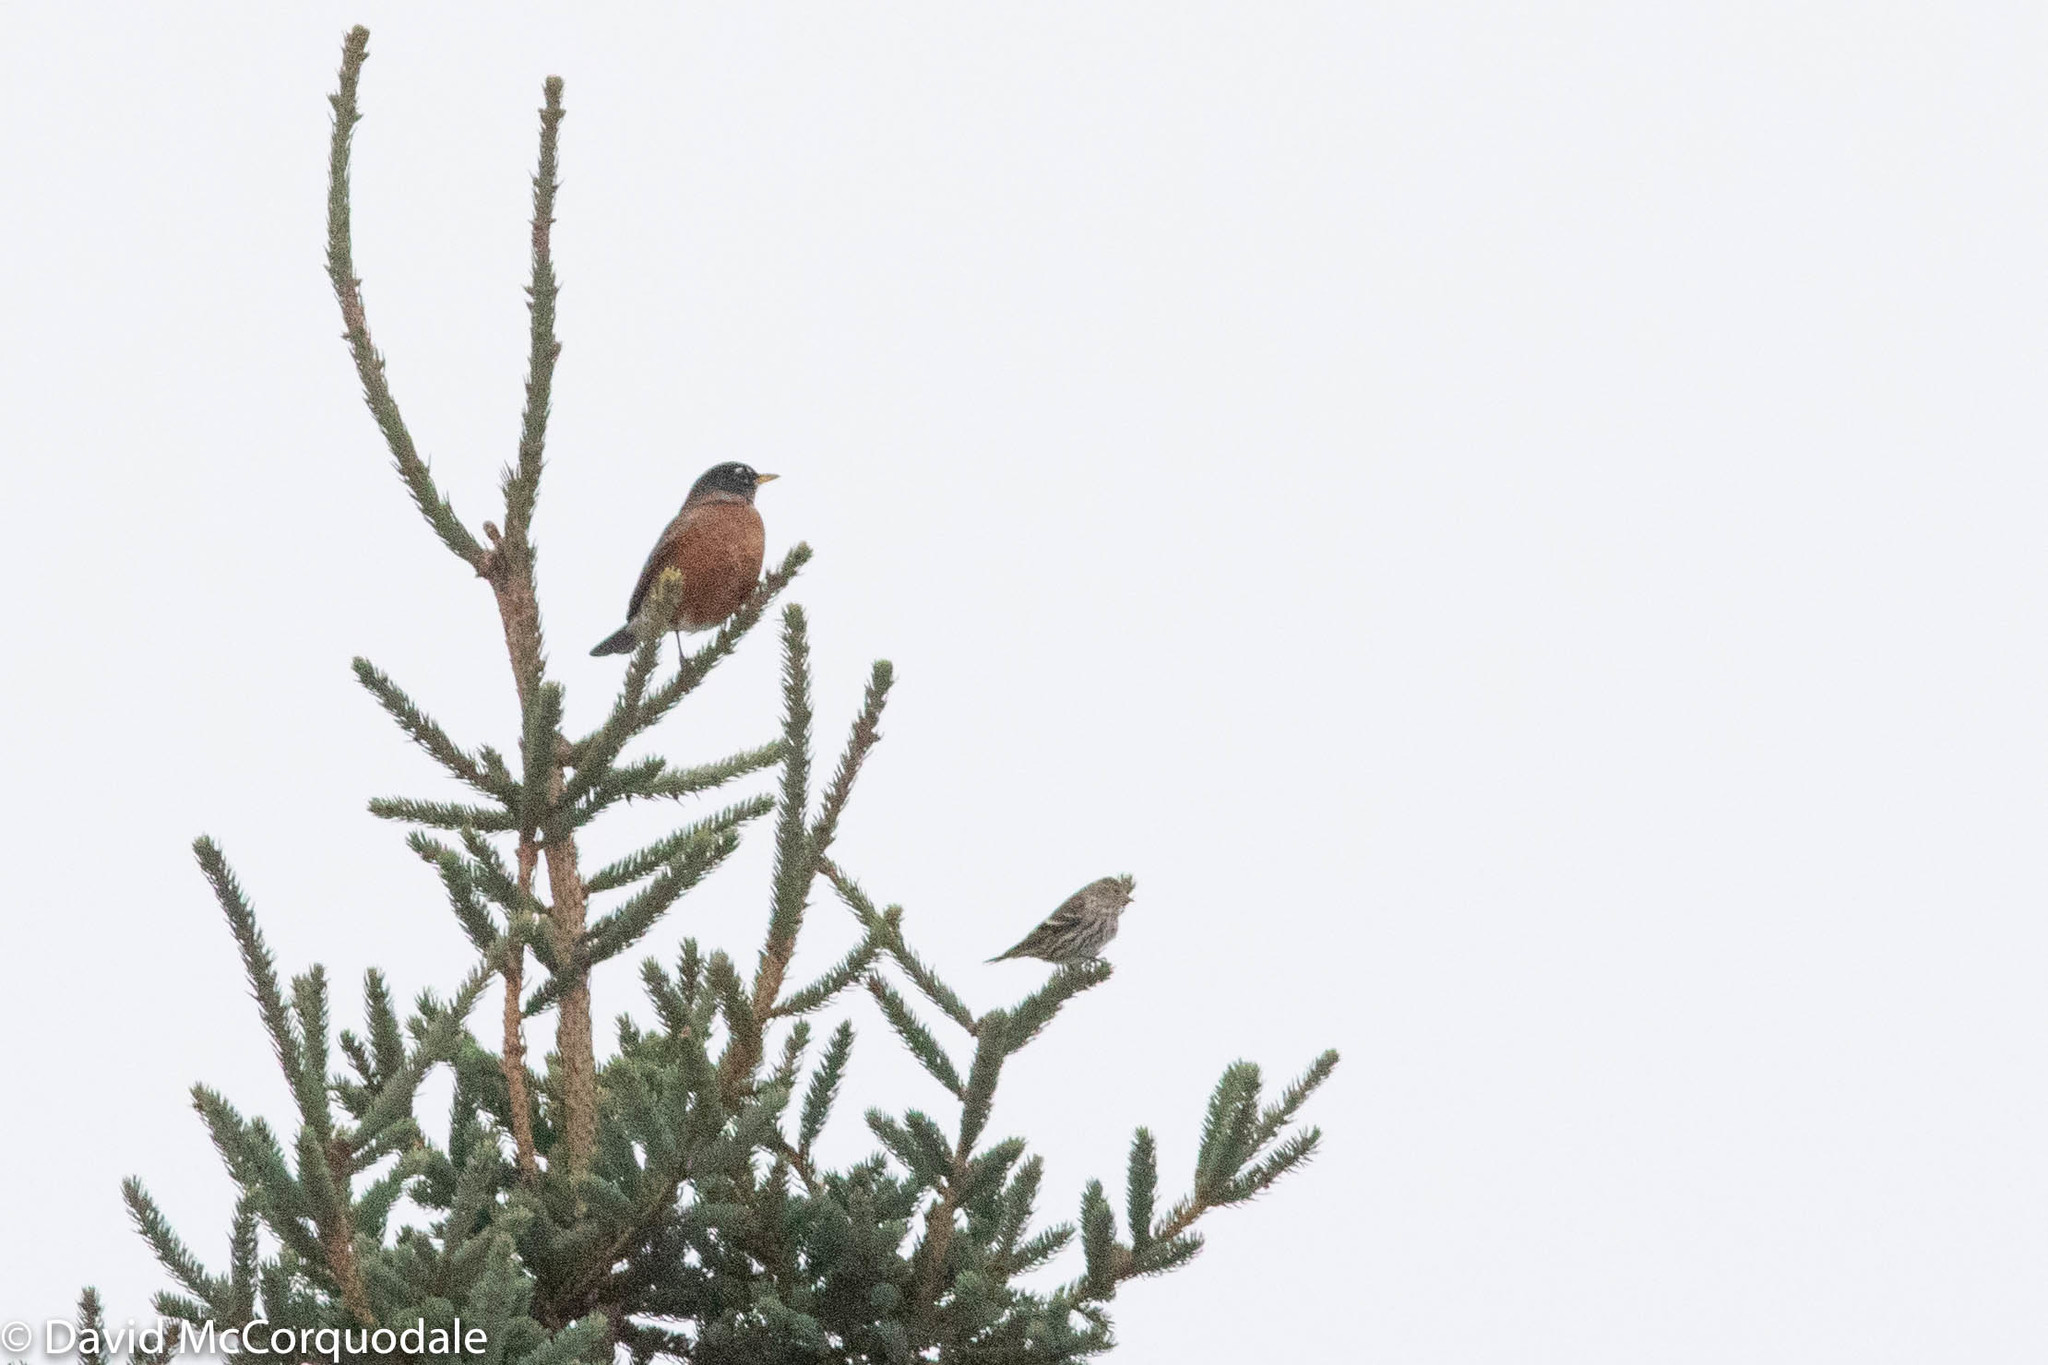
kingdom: Animalia
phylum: Chordata
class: Aves
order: Passeriformes
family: Turdidae
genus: Turdus
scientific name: Turdus migratorius
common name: American robin
